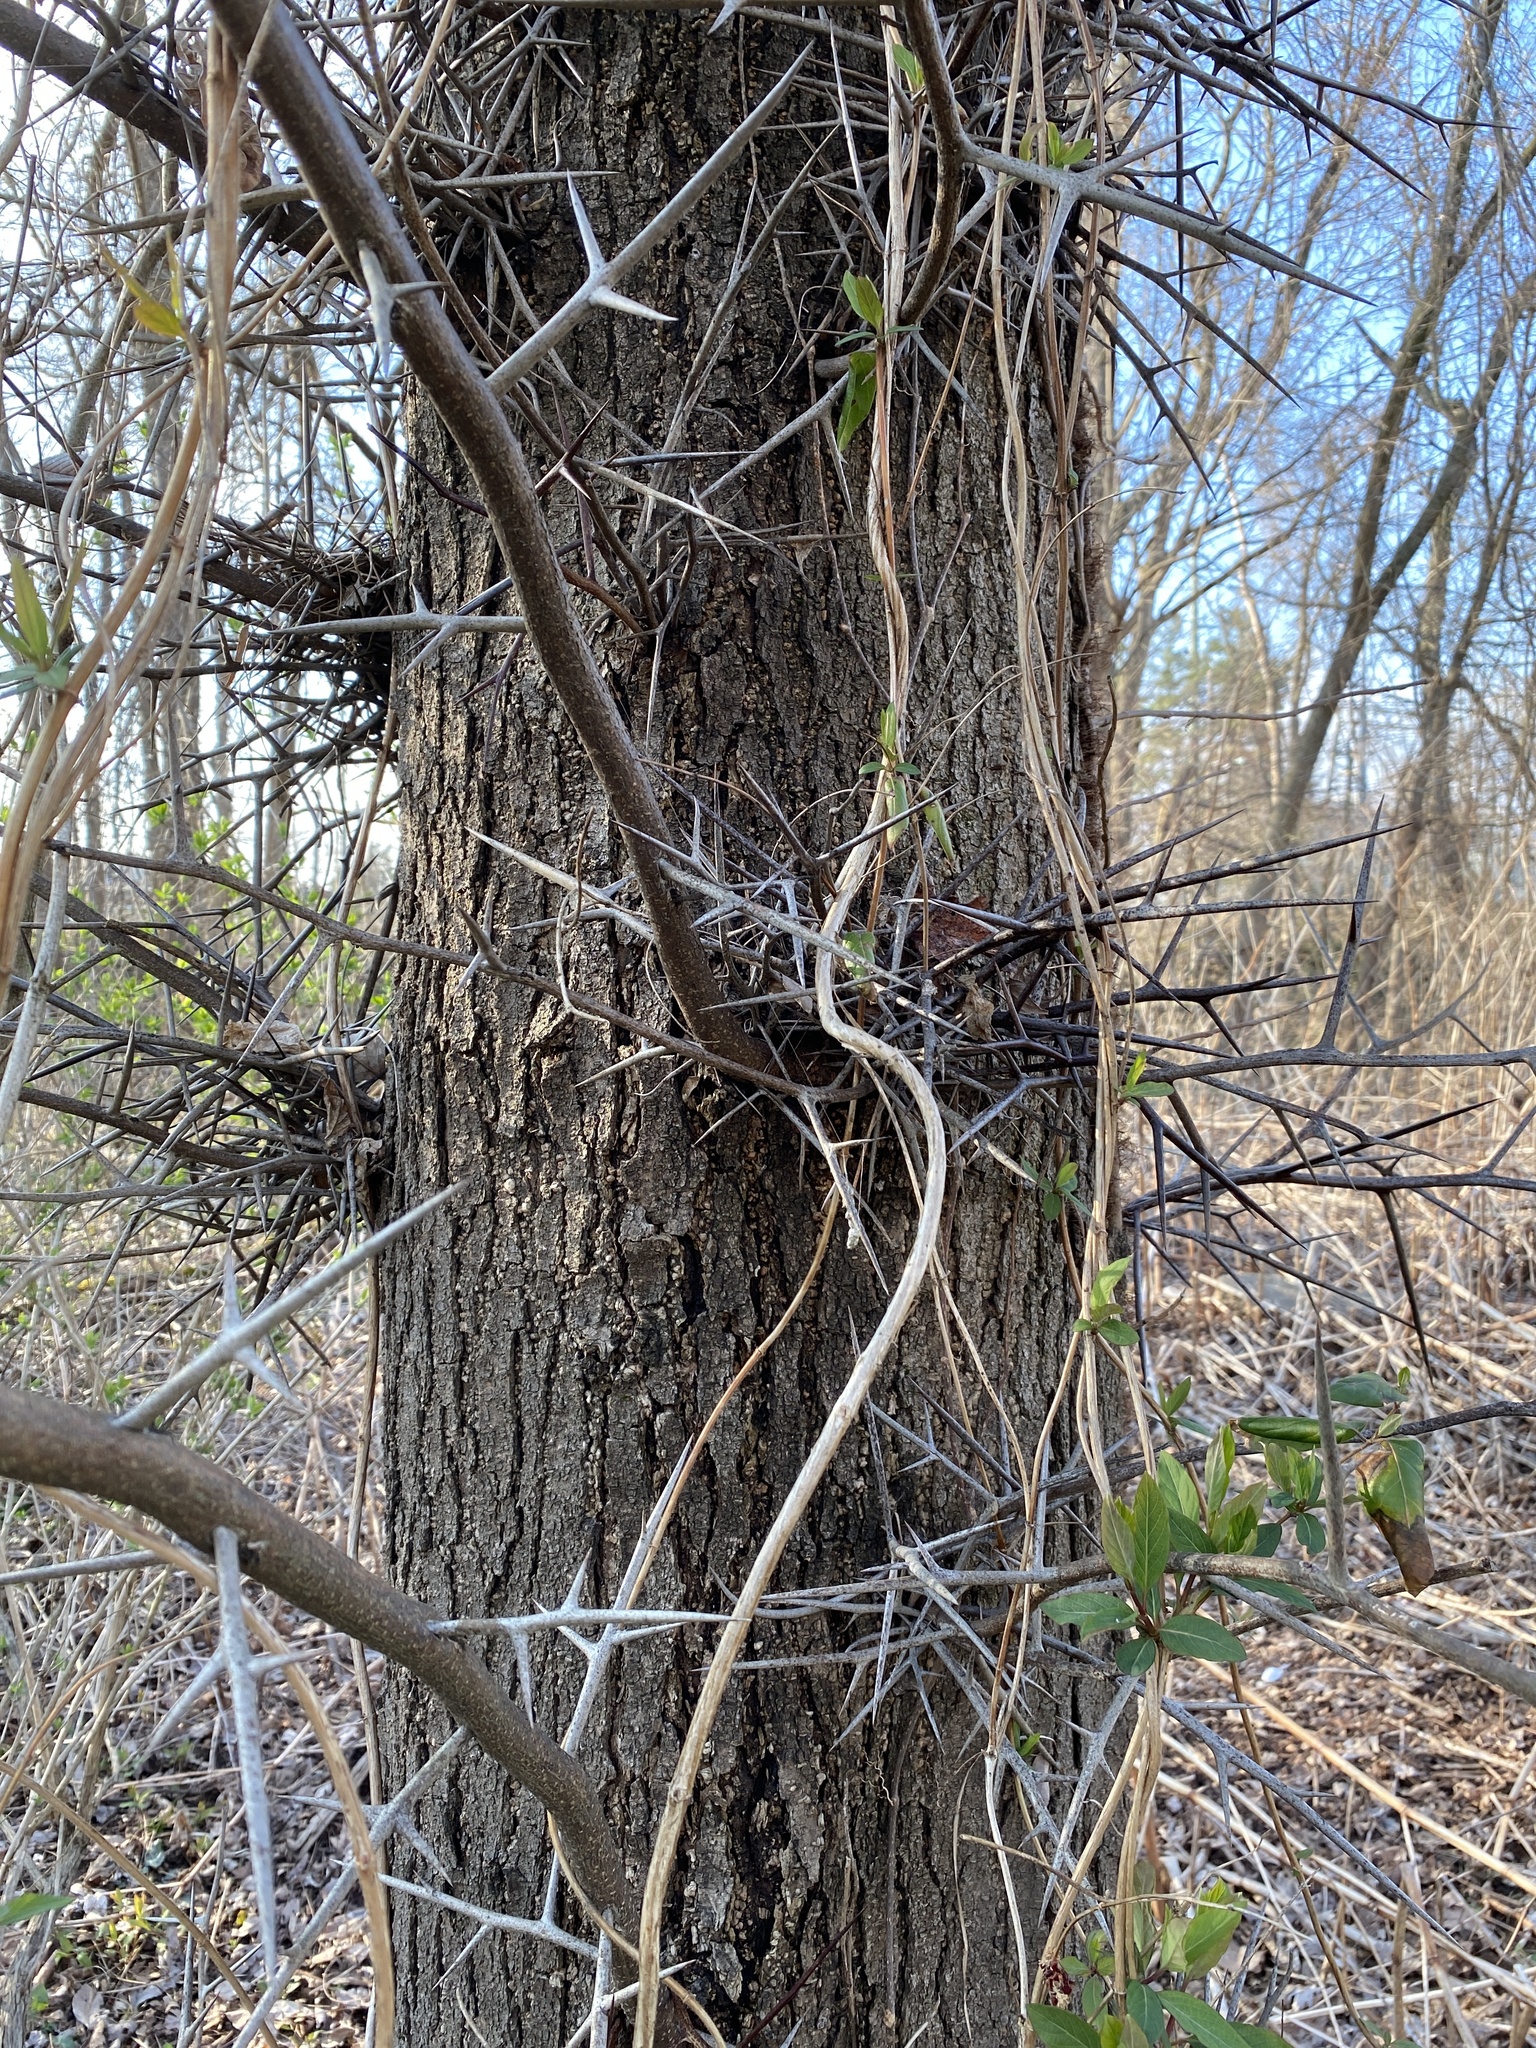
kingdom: Plantae
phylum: Tracheophyta
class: Magnoliopsida
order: Fabales
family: Fabaceae
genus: Gleditsia
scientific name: Gleditsia triacanthos
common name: Common honeylocust
